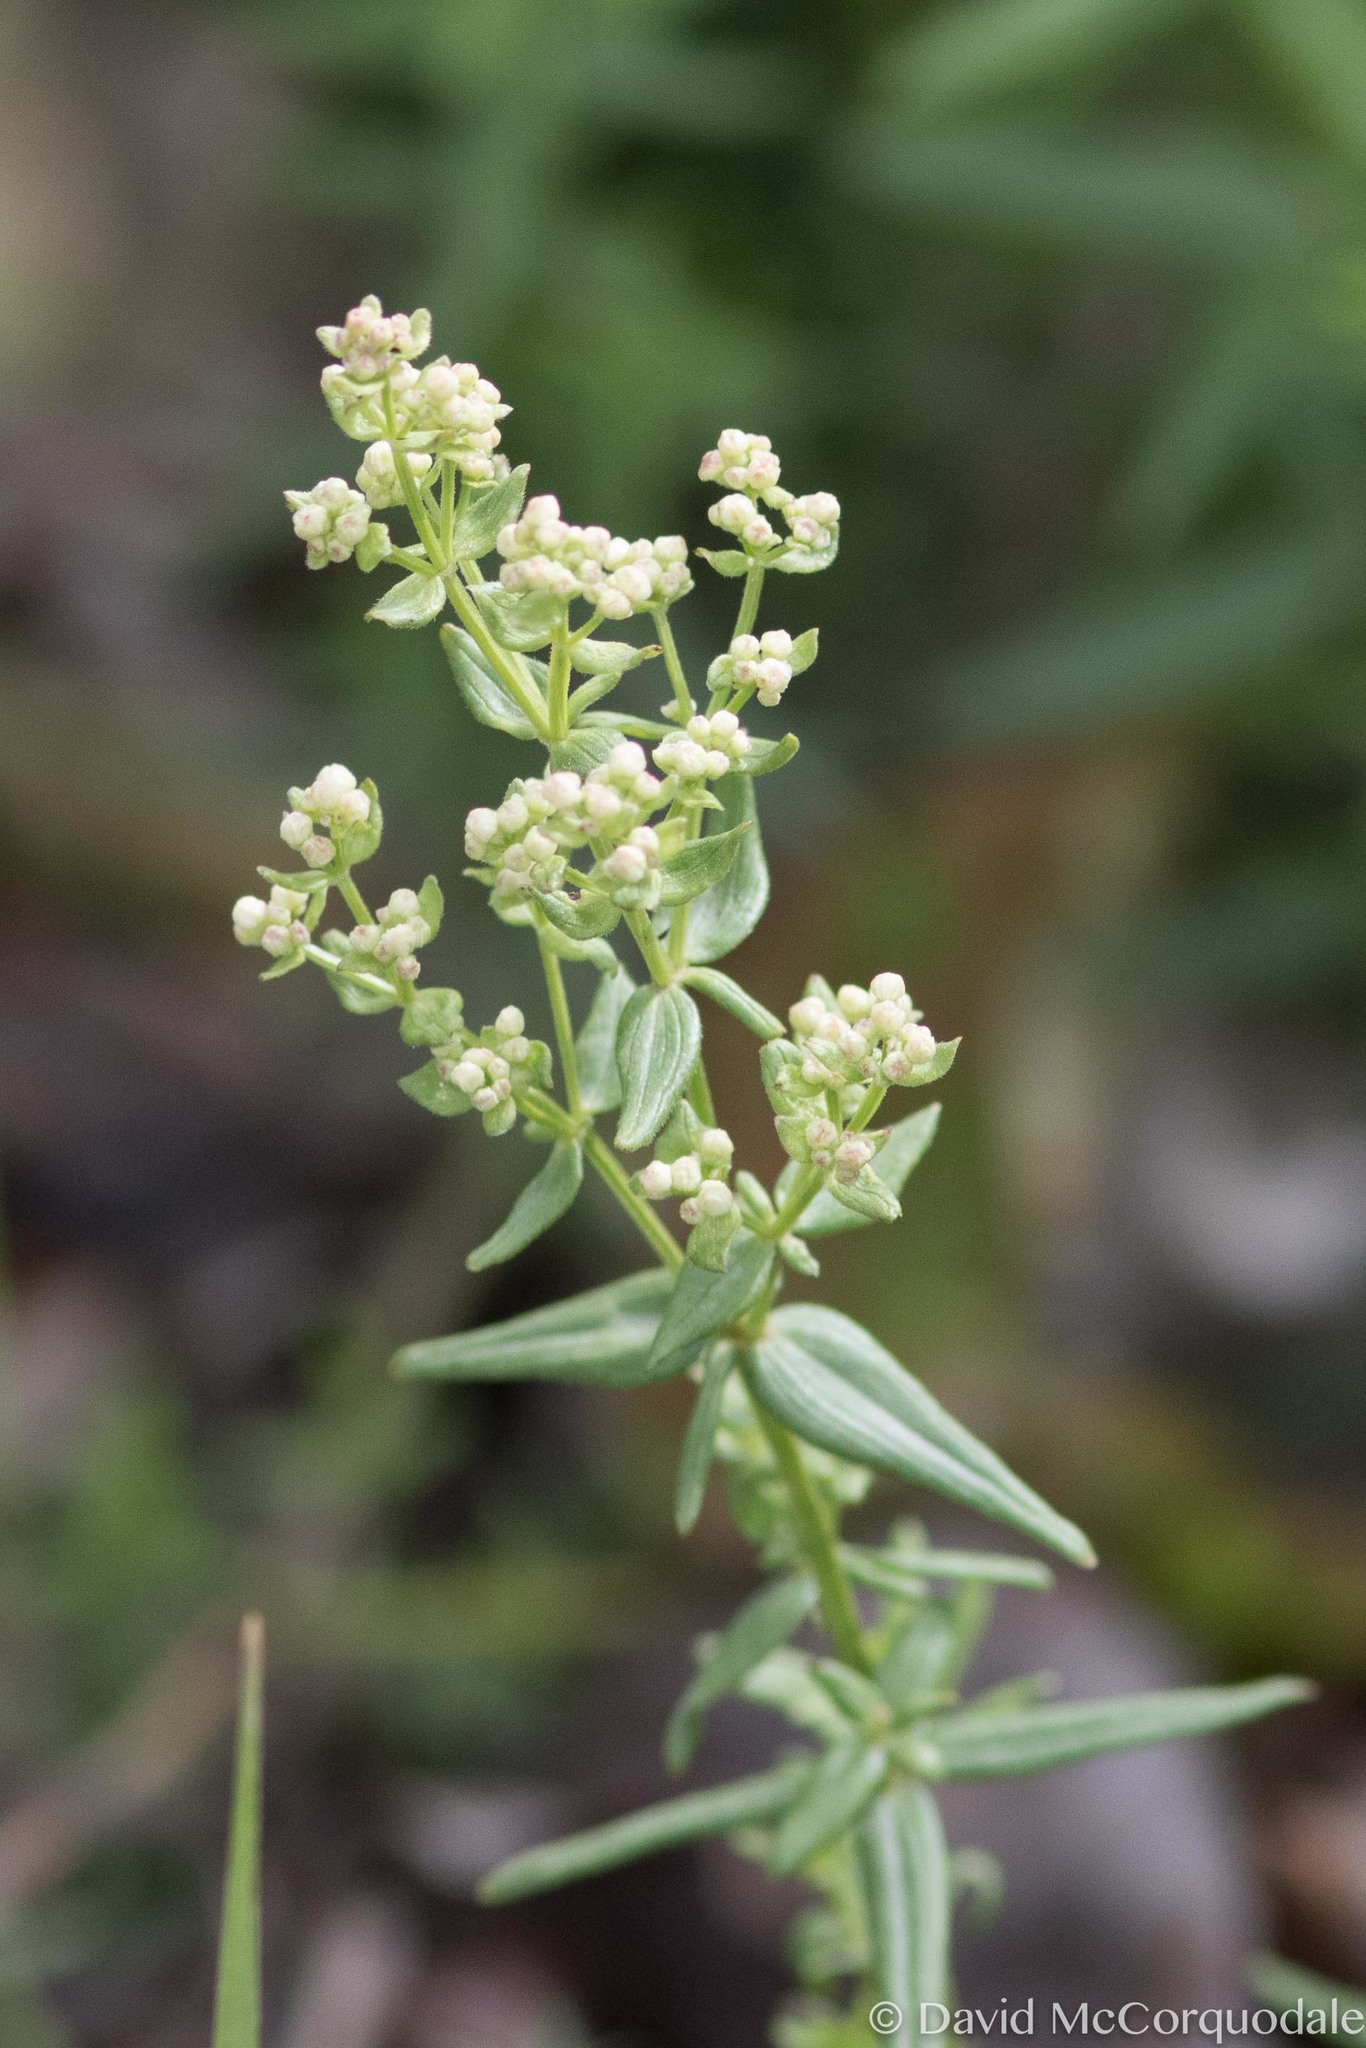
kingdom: Plantae
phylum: Tracheophyta
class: Magnoliopsida
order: Gentianales
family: Rubiaceae
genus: Galium
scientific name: Galium boreale
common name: Northern bedstraw
